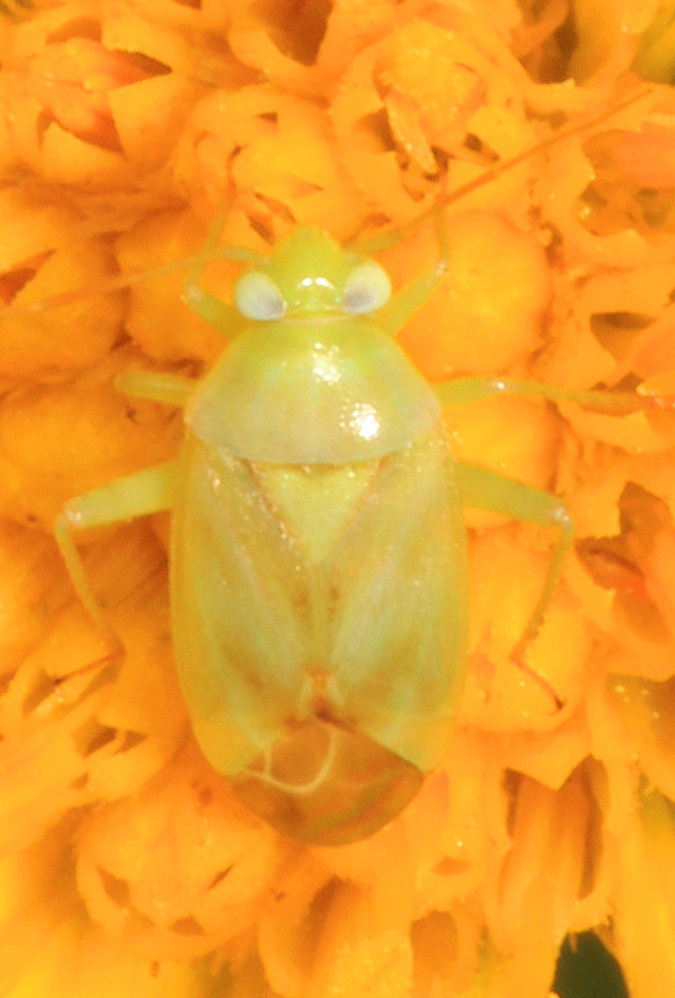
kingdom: Animalia
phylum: Arthropoda
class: Insecta
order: Hemiptera
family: Miridae
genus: Taylorilygus
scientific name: Taylorilygus apicalis
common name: Plant bug
